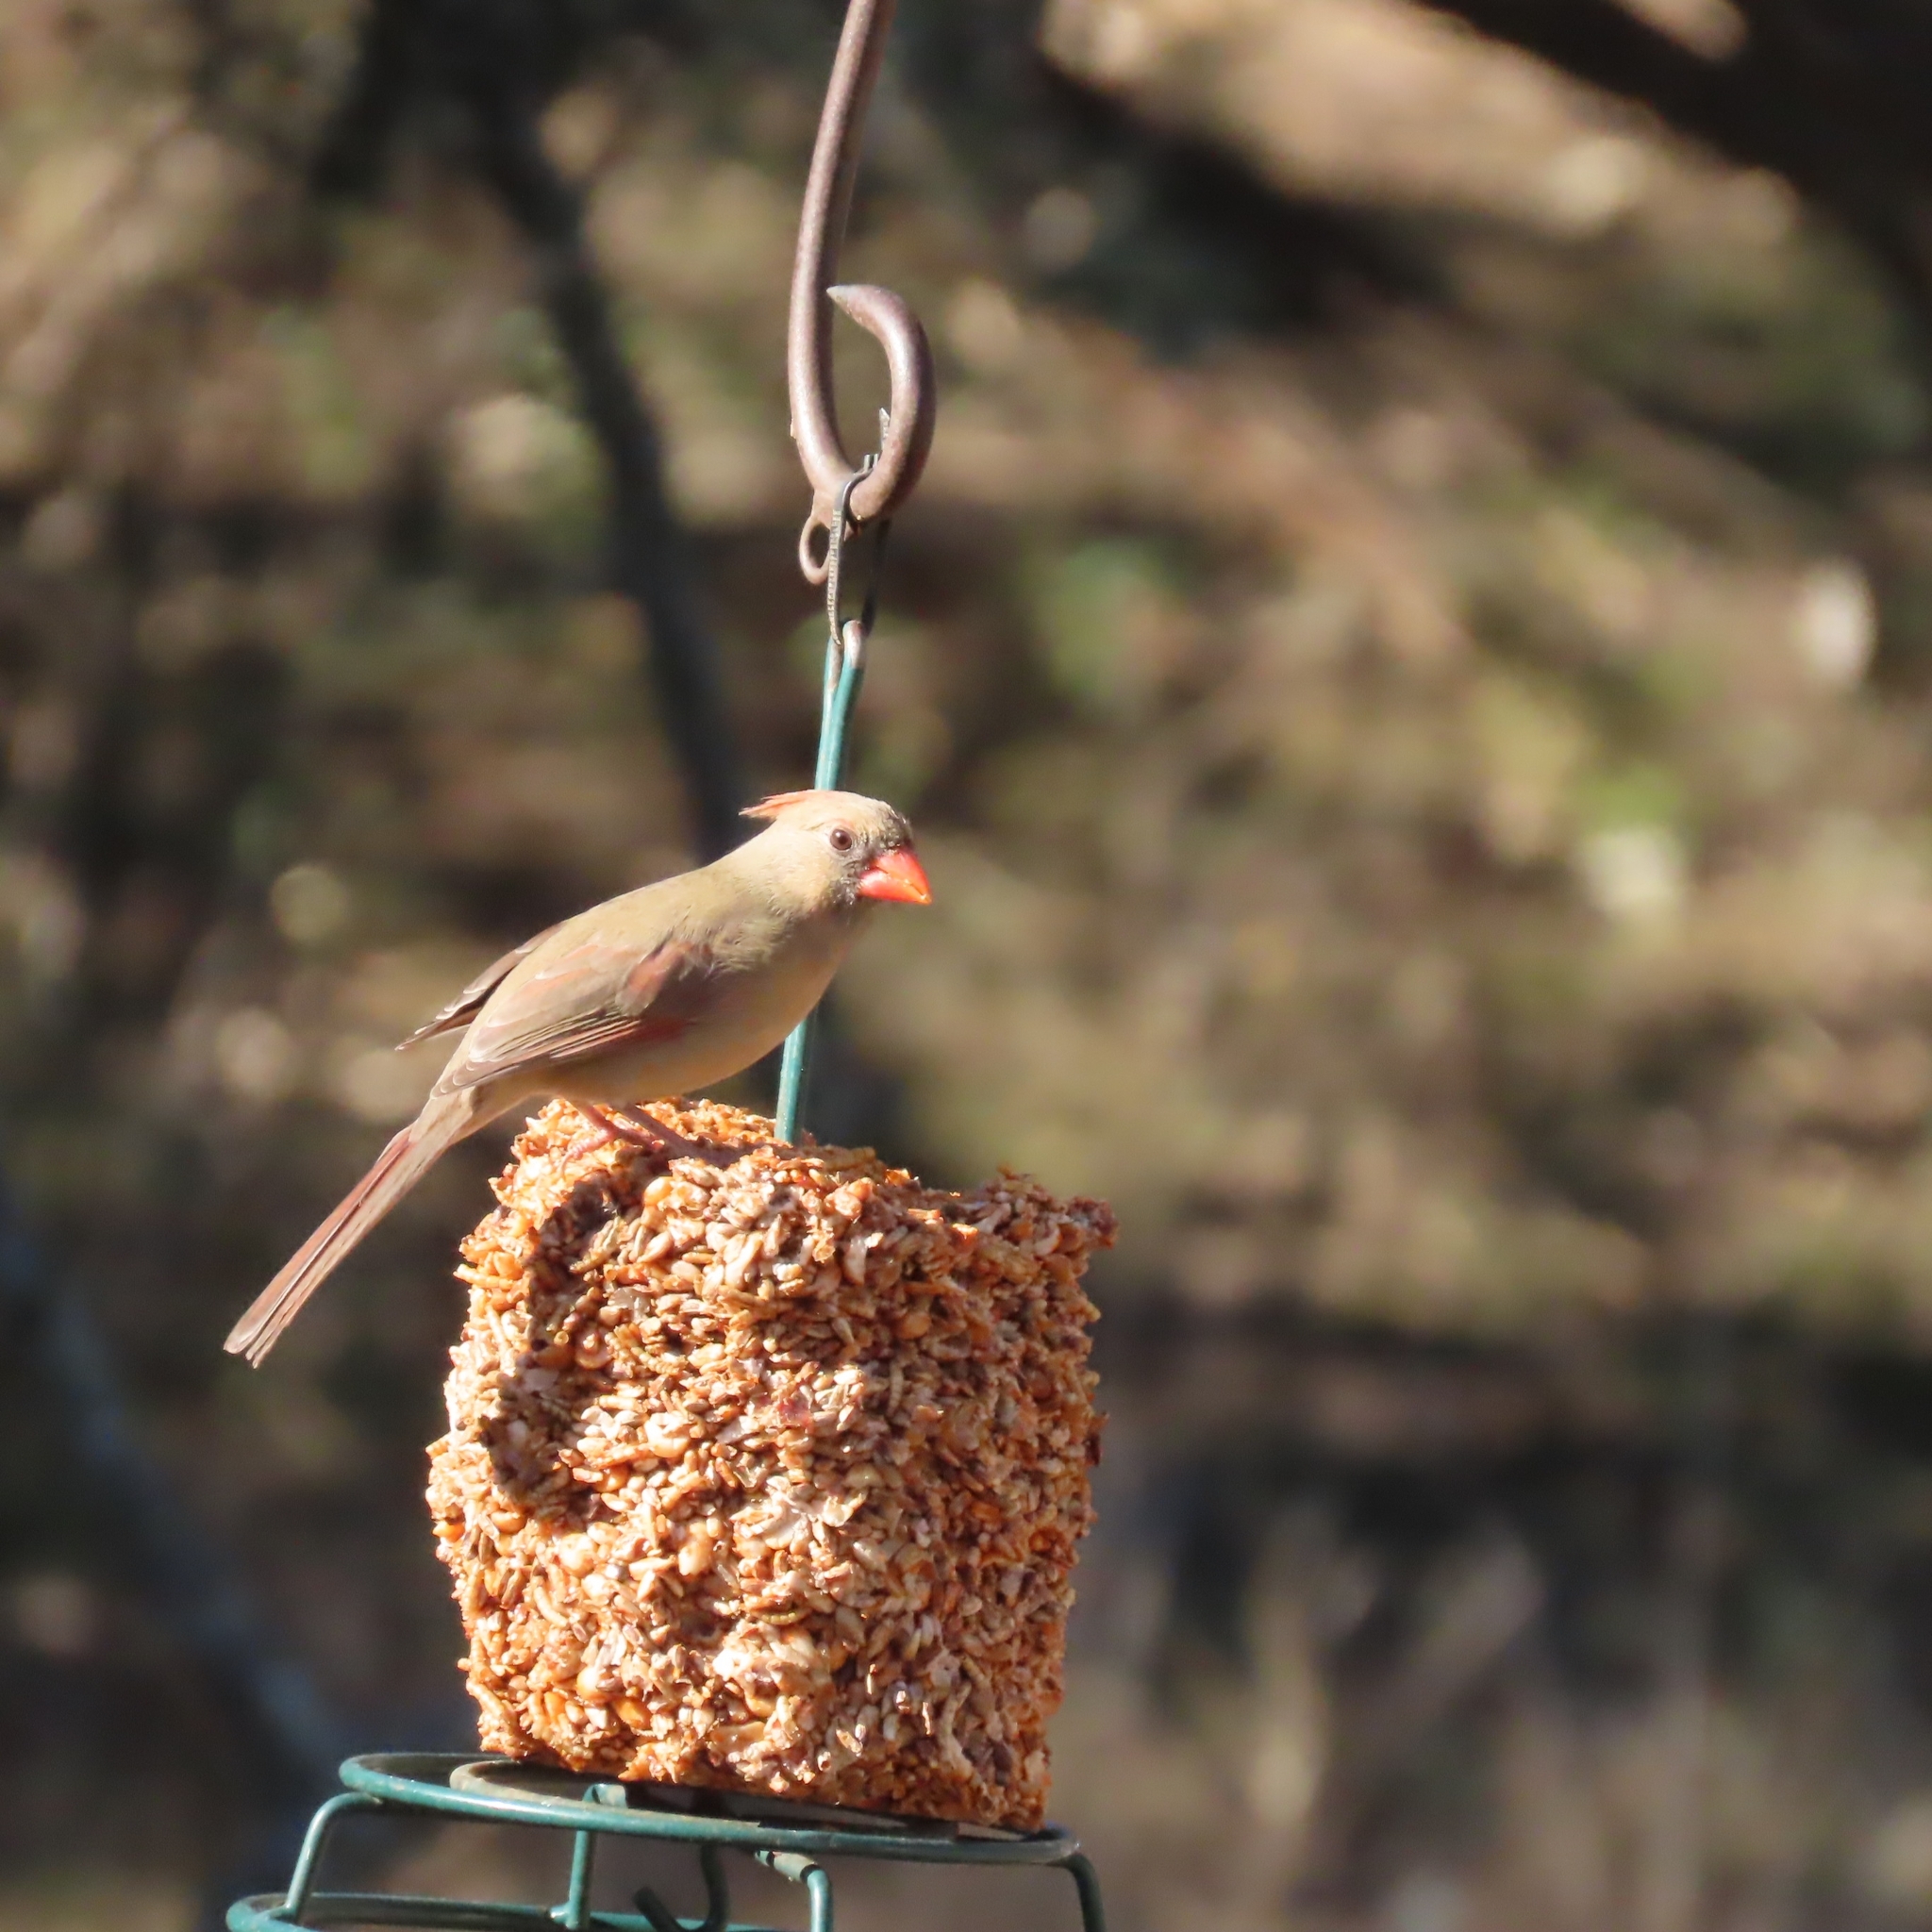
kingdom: Animalia
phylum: Chordata
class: Aves
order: Passeriformes
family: Cardinalidae
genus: Cardinalis
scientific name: Cardinalis cardinalis
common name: Northern cardinal
